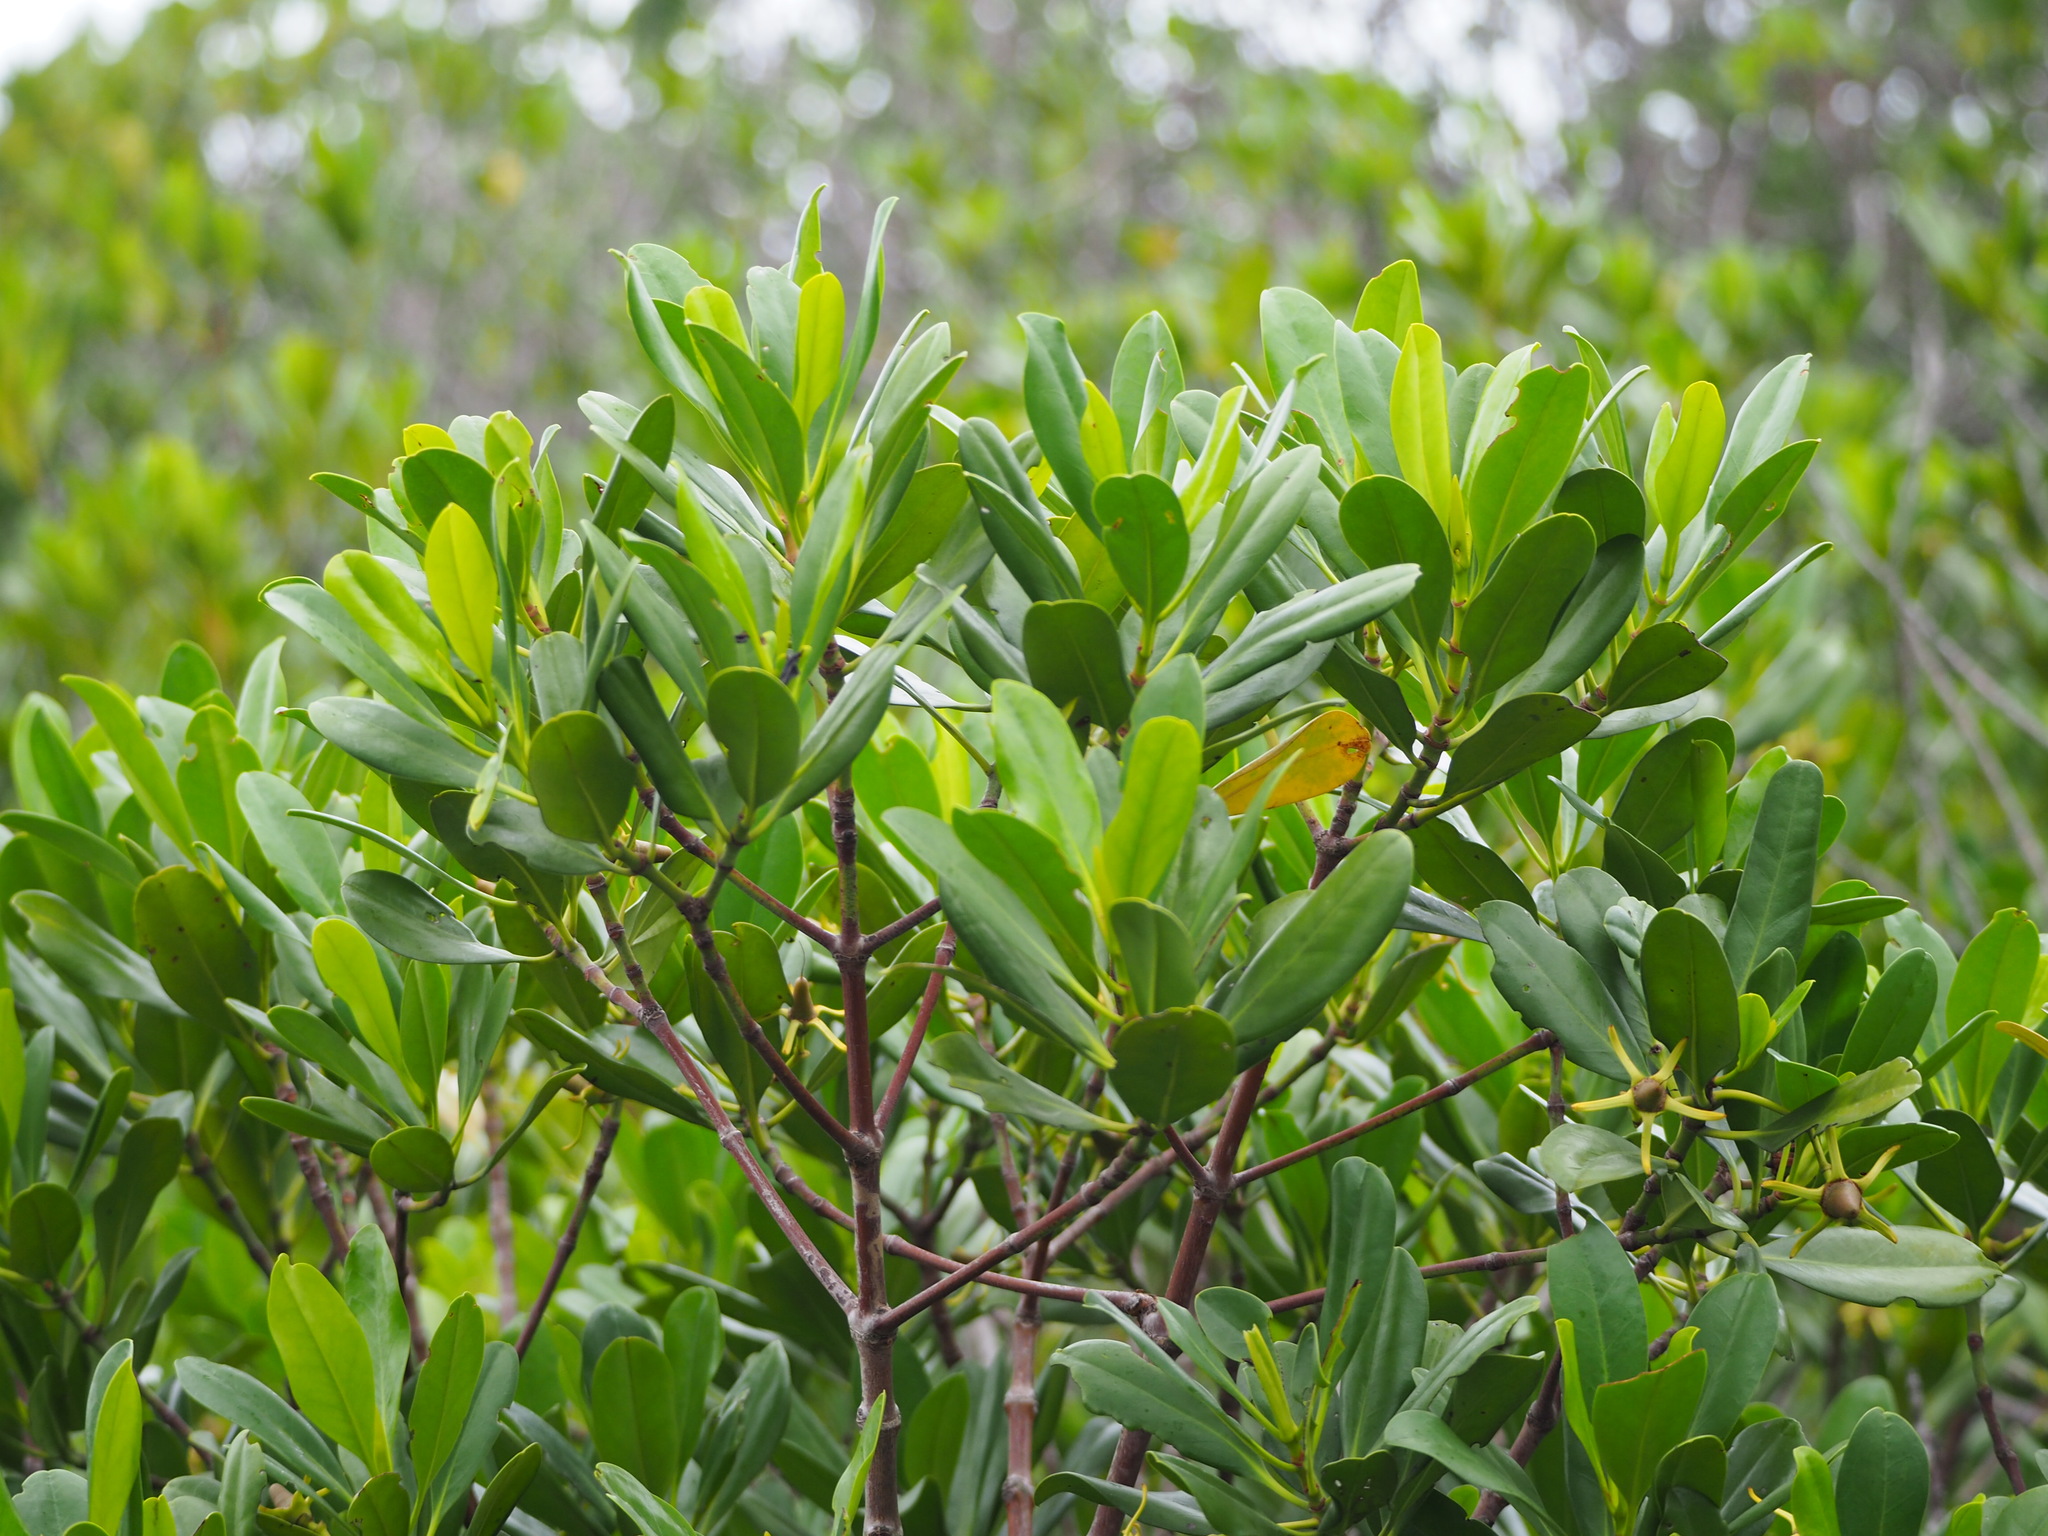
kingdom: Plantae
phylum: Tracheophyta
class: Magnoliopsida
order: Malpighiales
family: Rhizophoraceae
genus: Kandelia
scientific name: Kandelia obovata
